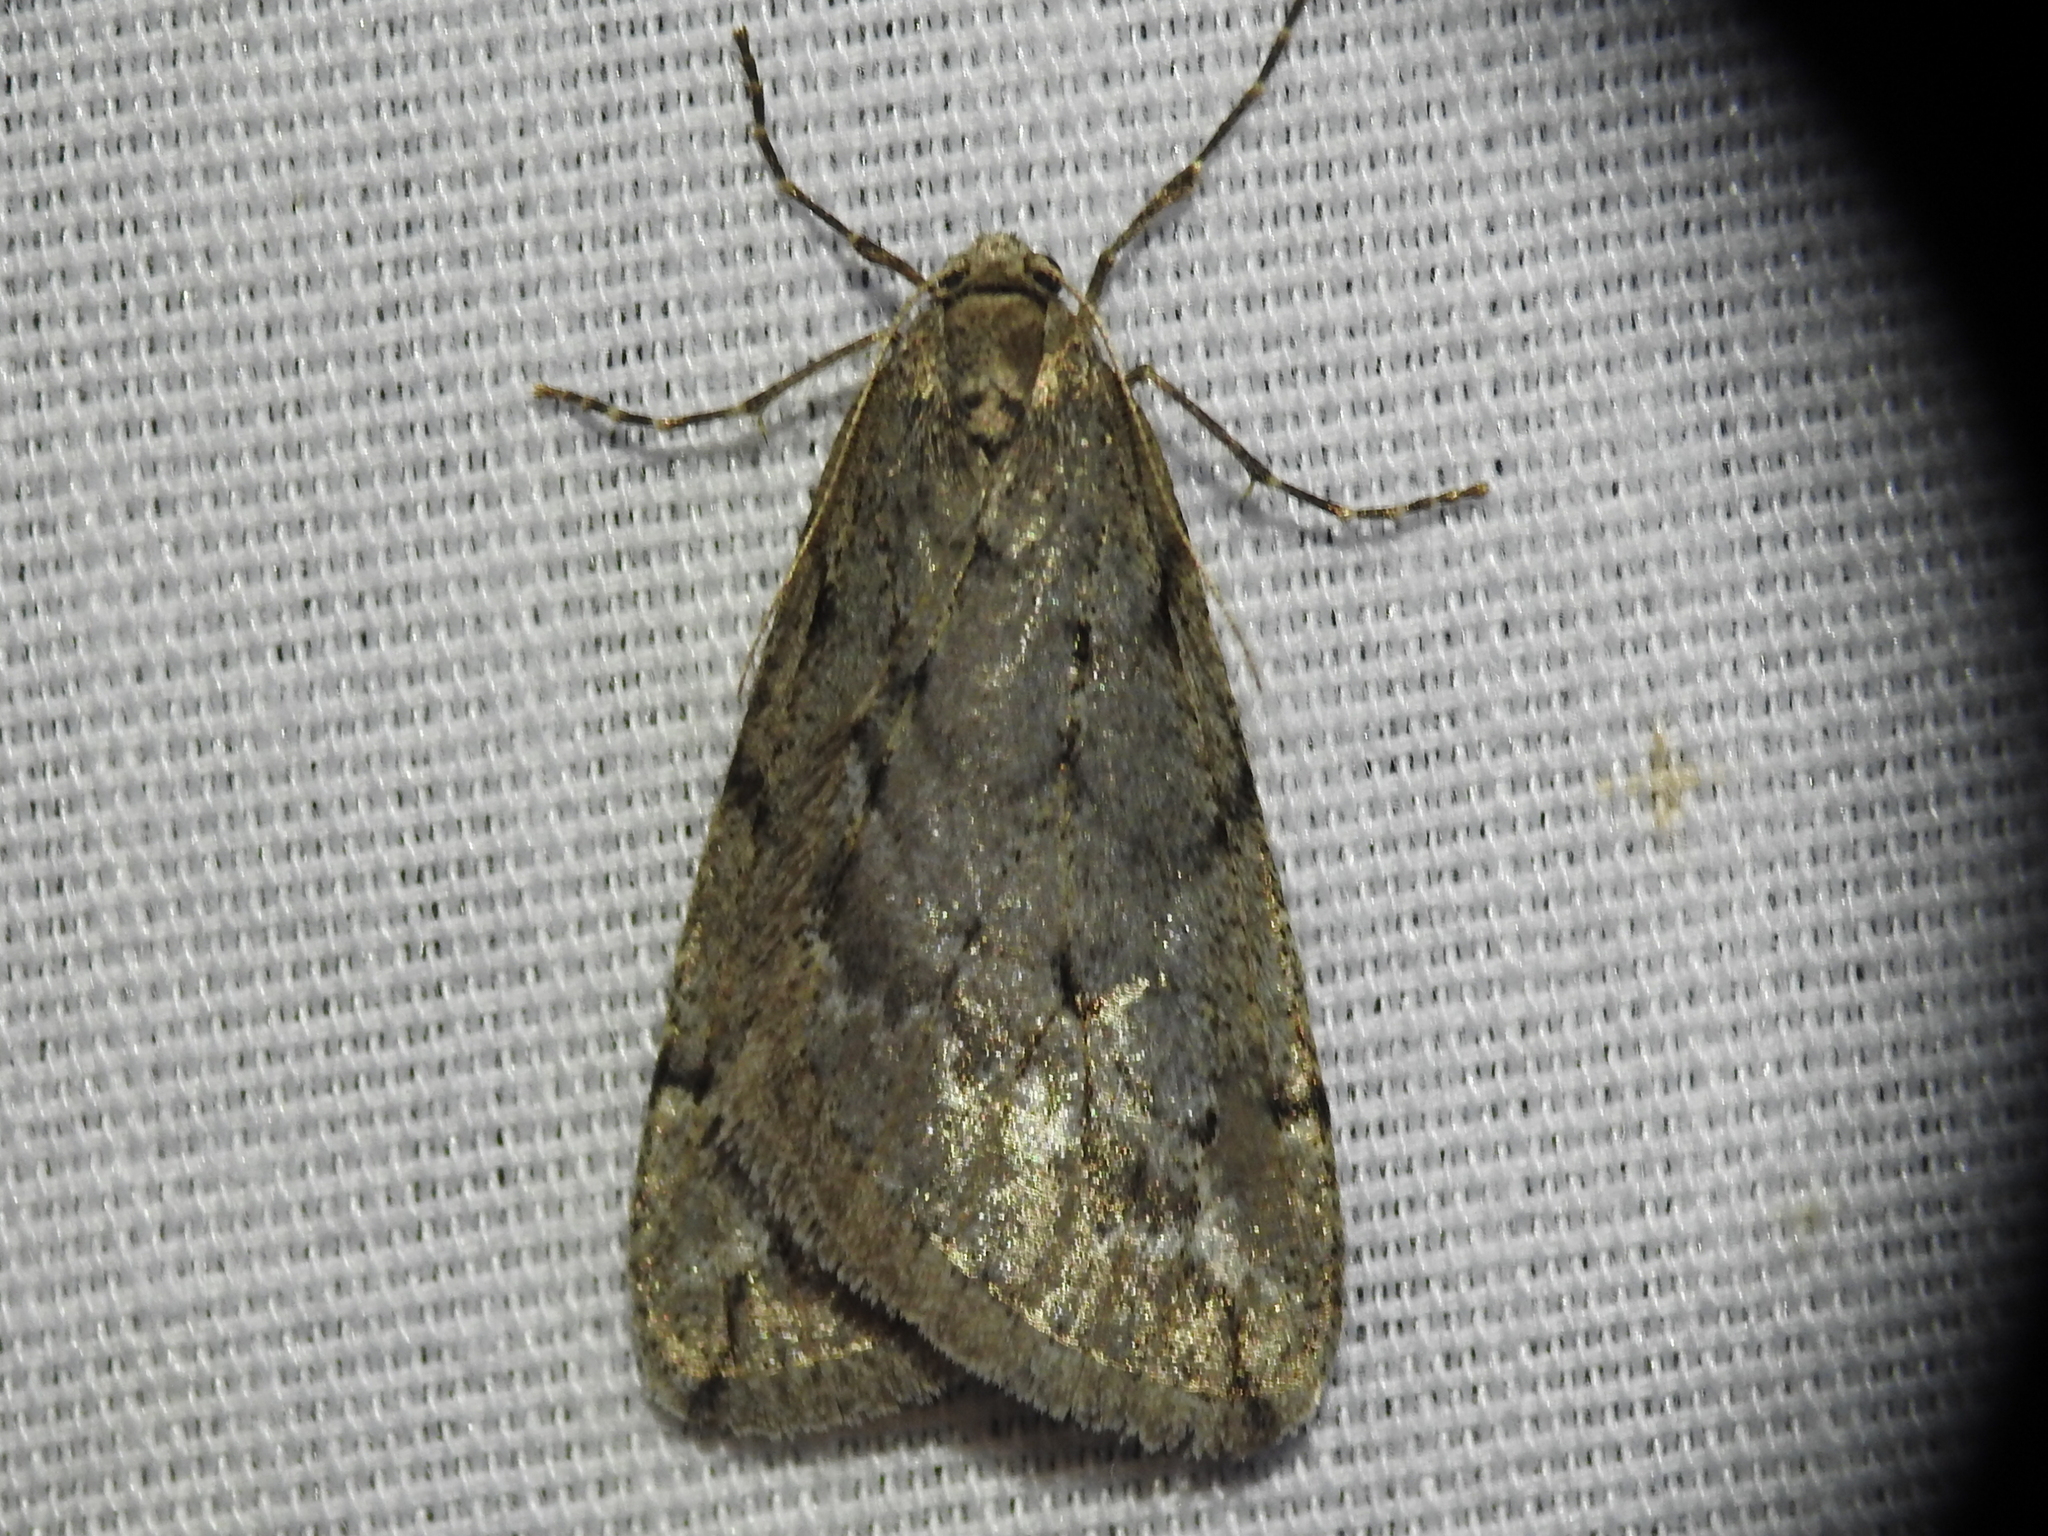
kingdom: Animalia
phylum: Arthropoda
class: Insecta
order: Lepidoptera
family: Geometridae
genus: Paleacrita
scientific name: Paleacrita vernata
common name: Spring cankerworm
